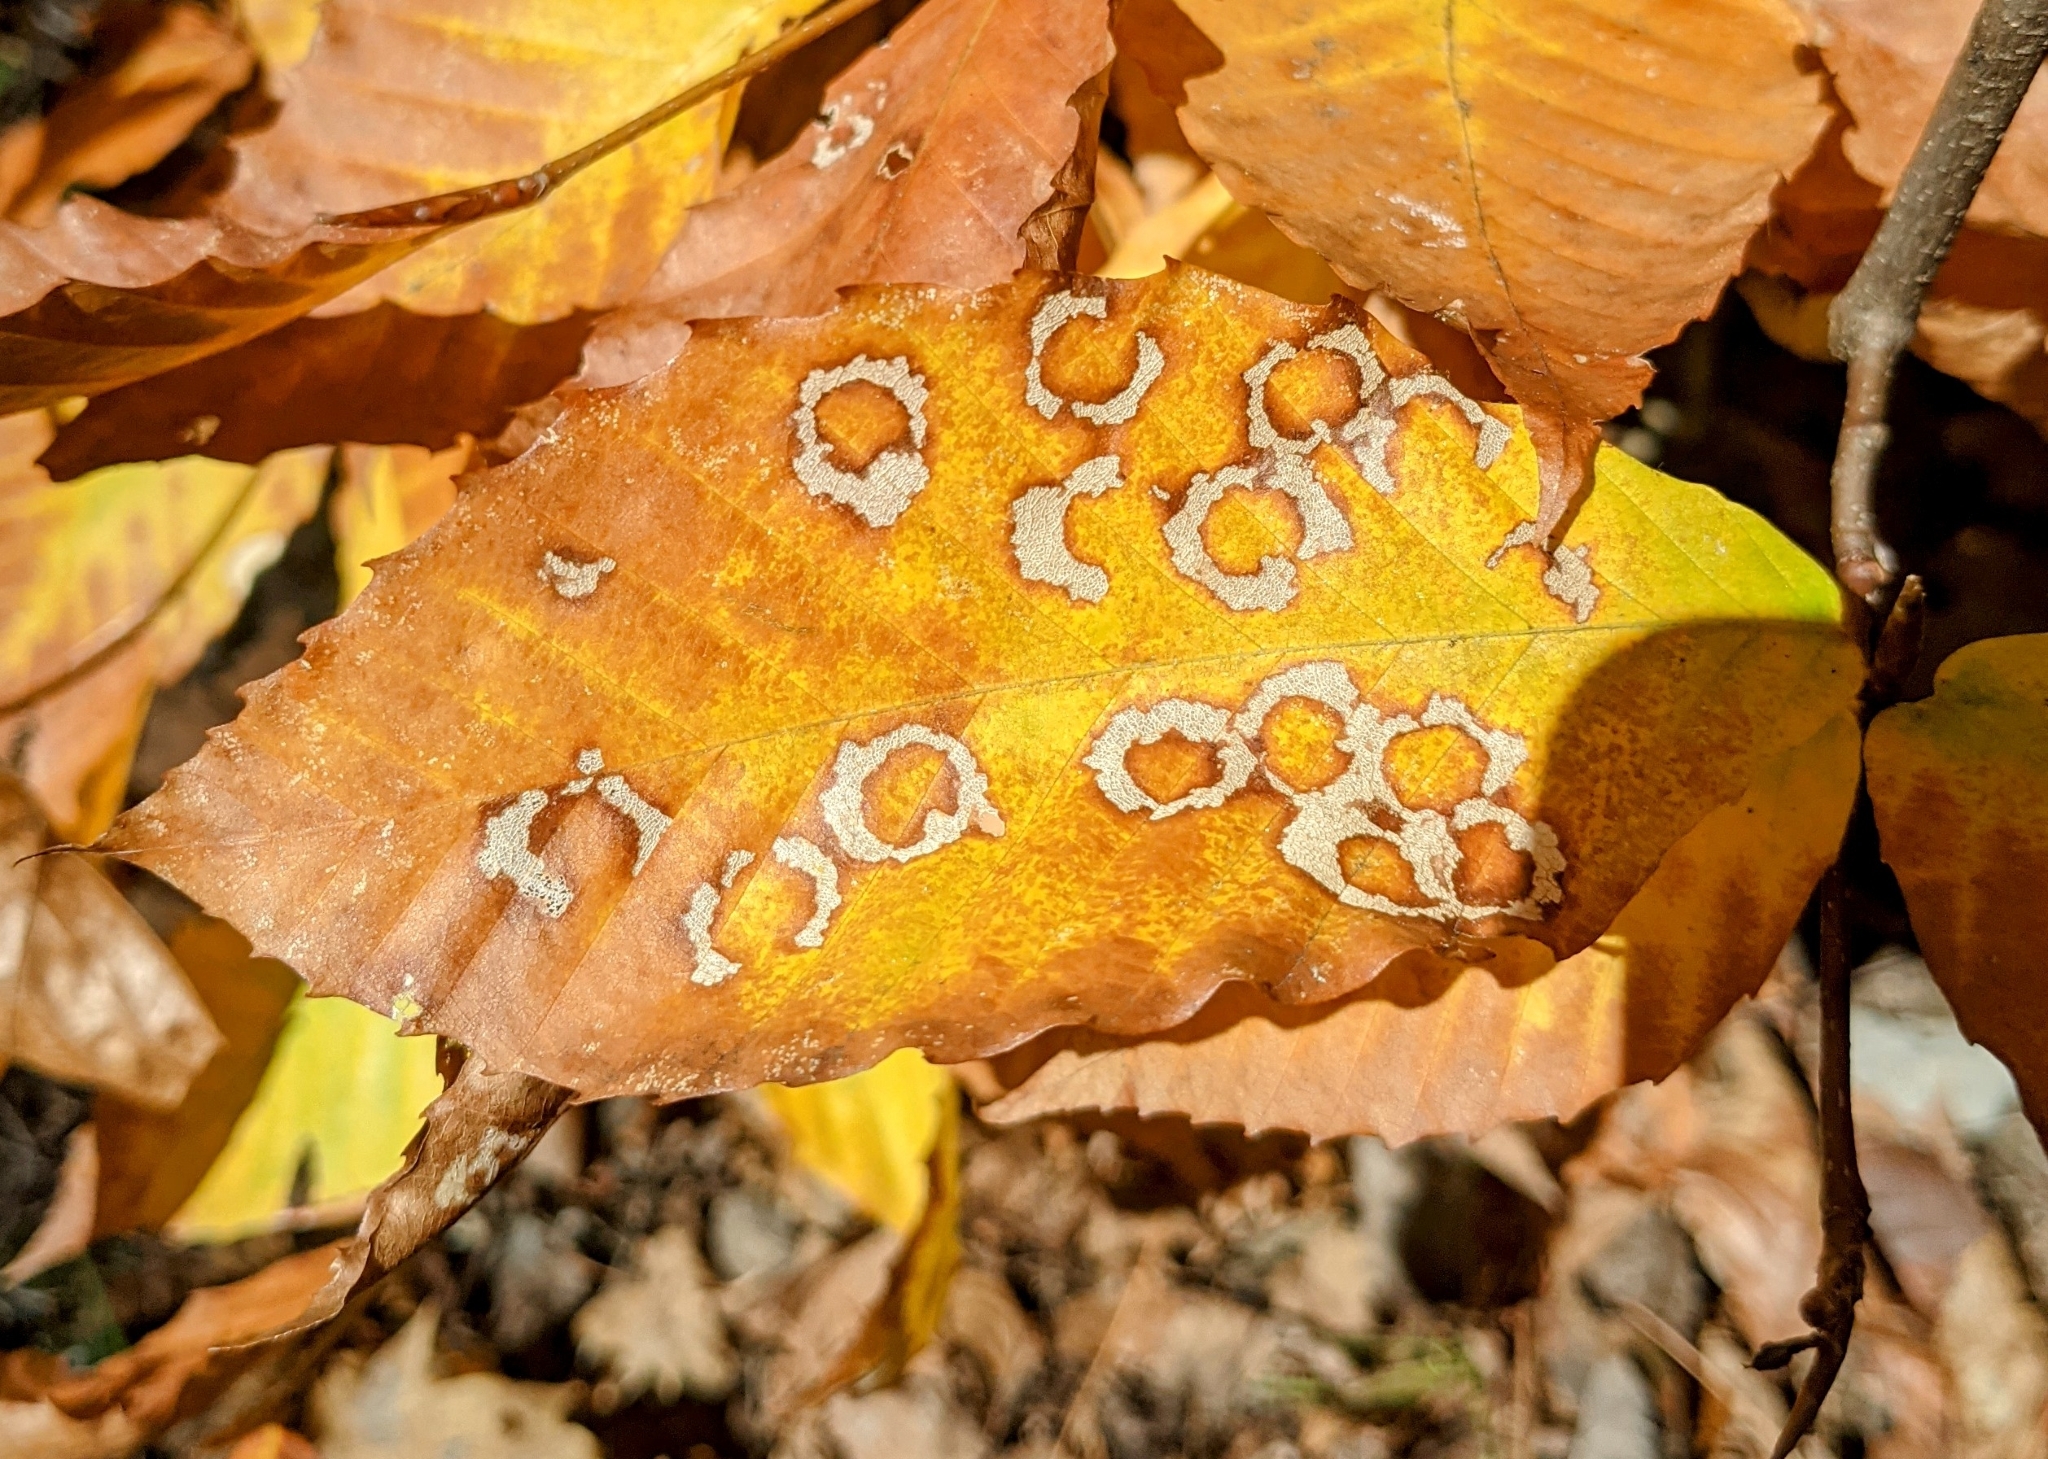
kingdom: Animalia
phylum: Arthropoda
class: Insecta
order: Lepidoptera
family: Incurvariidae
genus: Paraclemensia
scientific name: Paraclemensia acerifoliella
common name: Maple leafcutter
